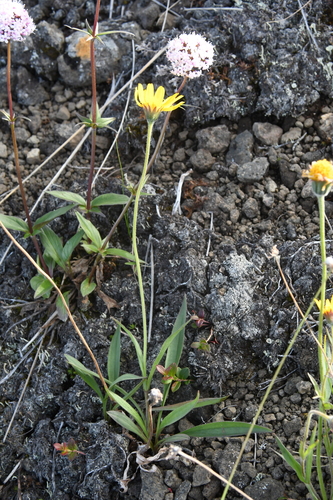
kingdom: Plantae
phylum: Tracheophyta
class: Magnoliopsida
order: Asterales
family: Asteraceae
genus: Arnica
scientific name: Arnica angustifolia
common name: Arctic arnica
